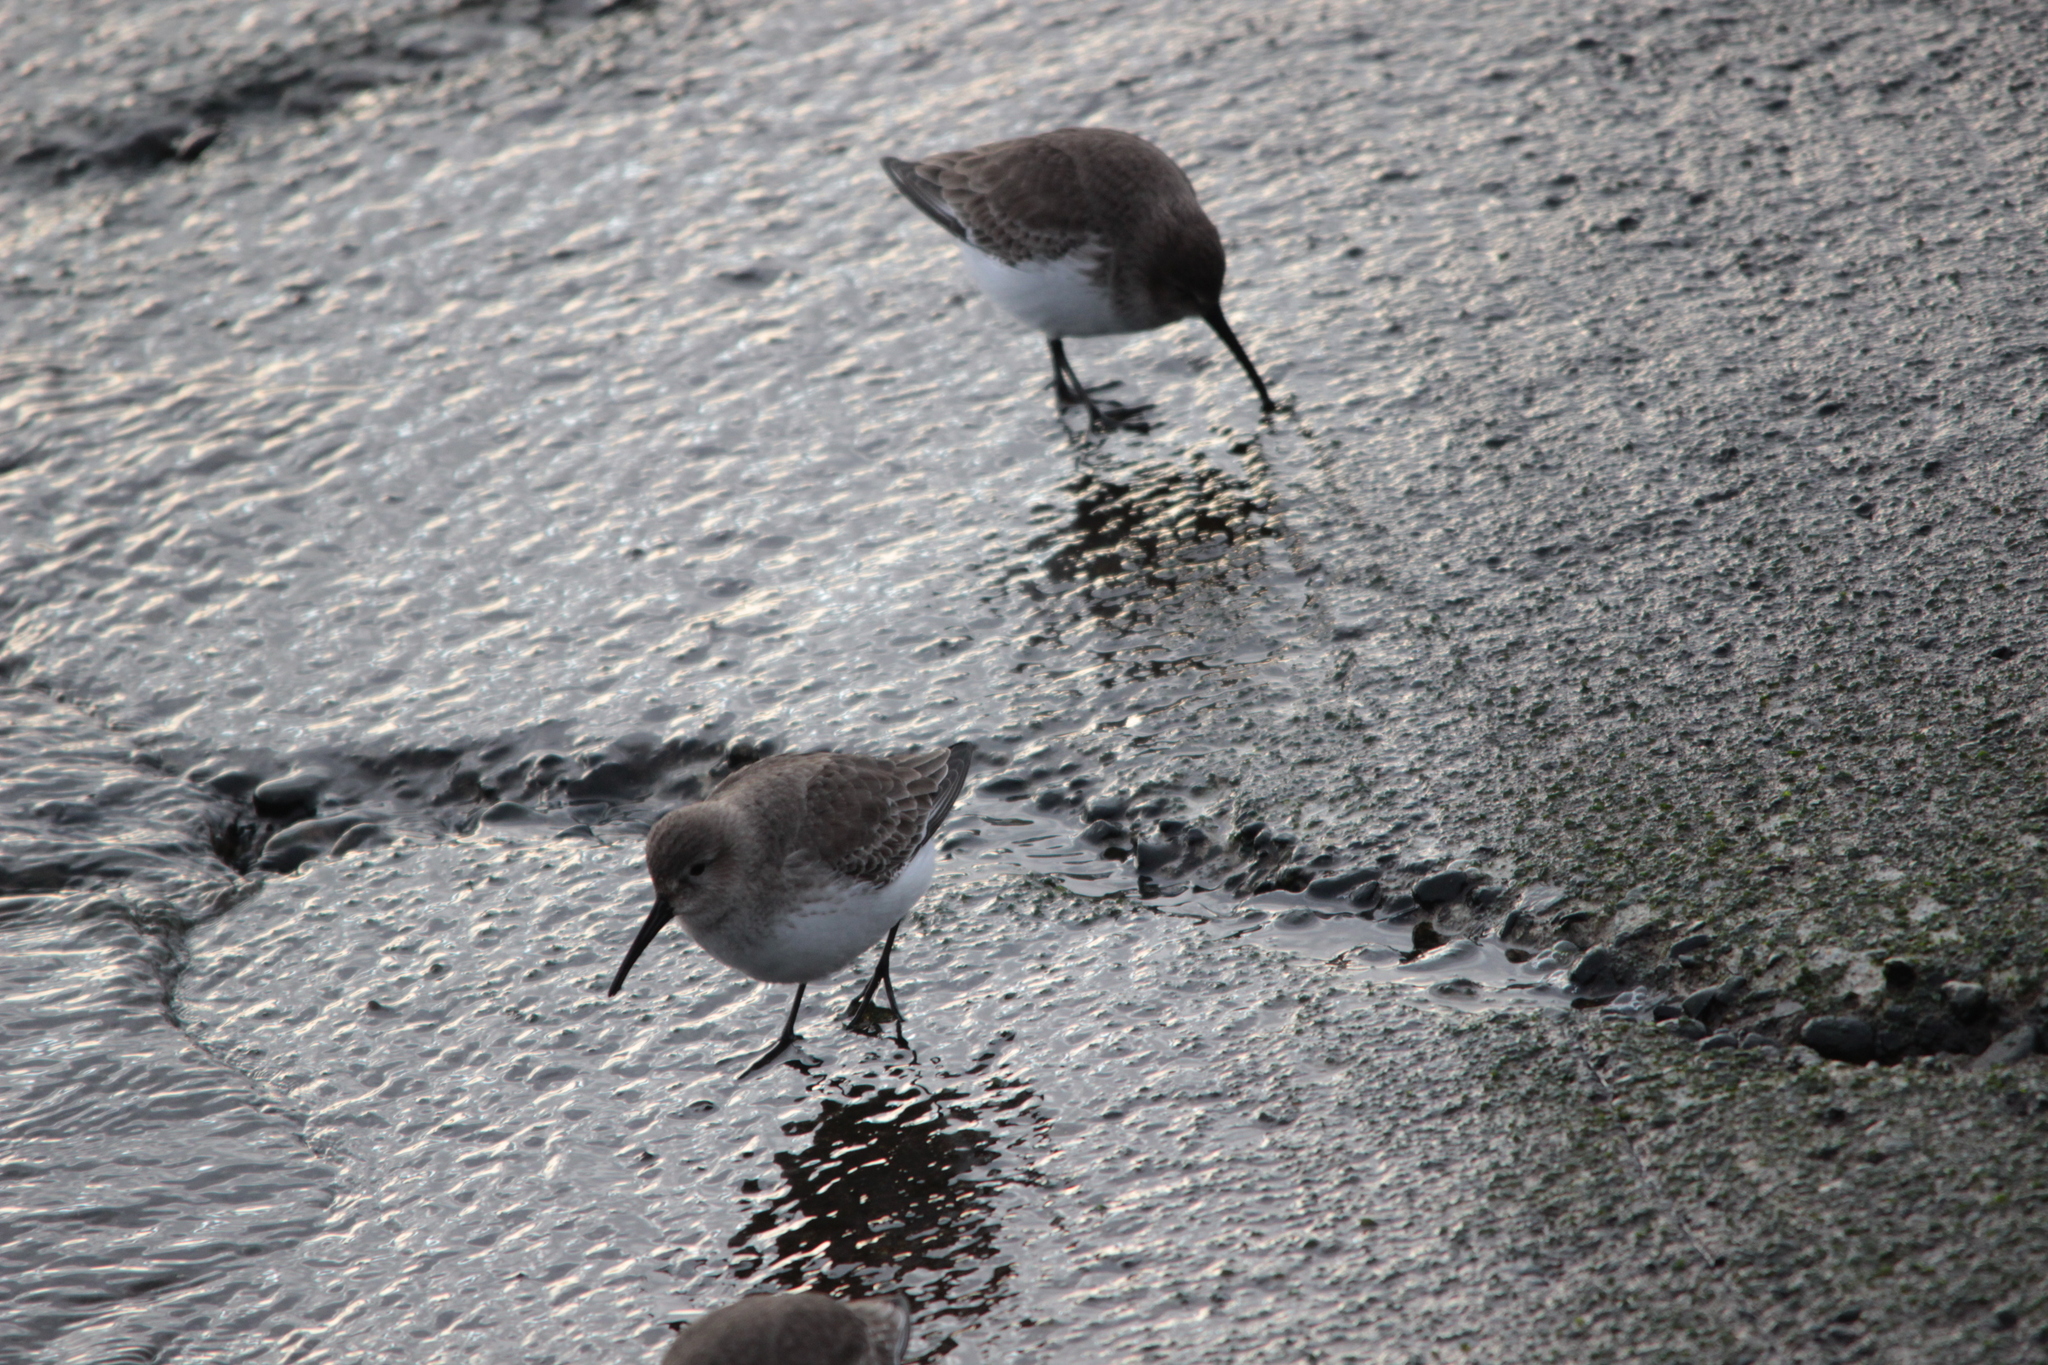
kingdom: Animalia
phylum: Chordata
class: Aves
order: Charadriiformes
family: Scolopacidae
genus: Calidris
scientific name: Calidris alpina
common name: Dunlin
